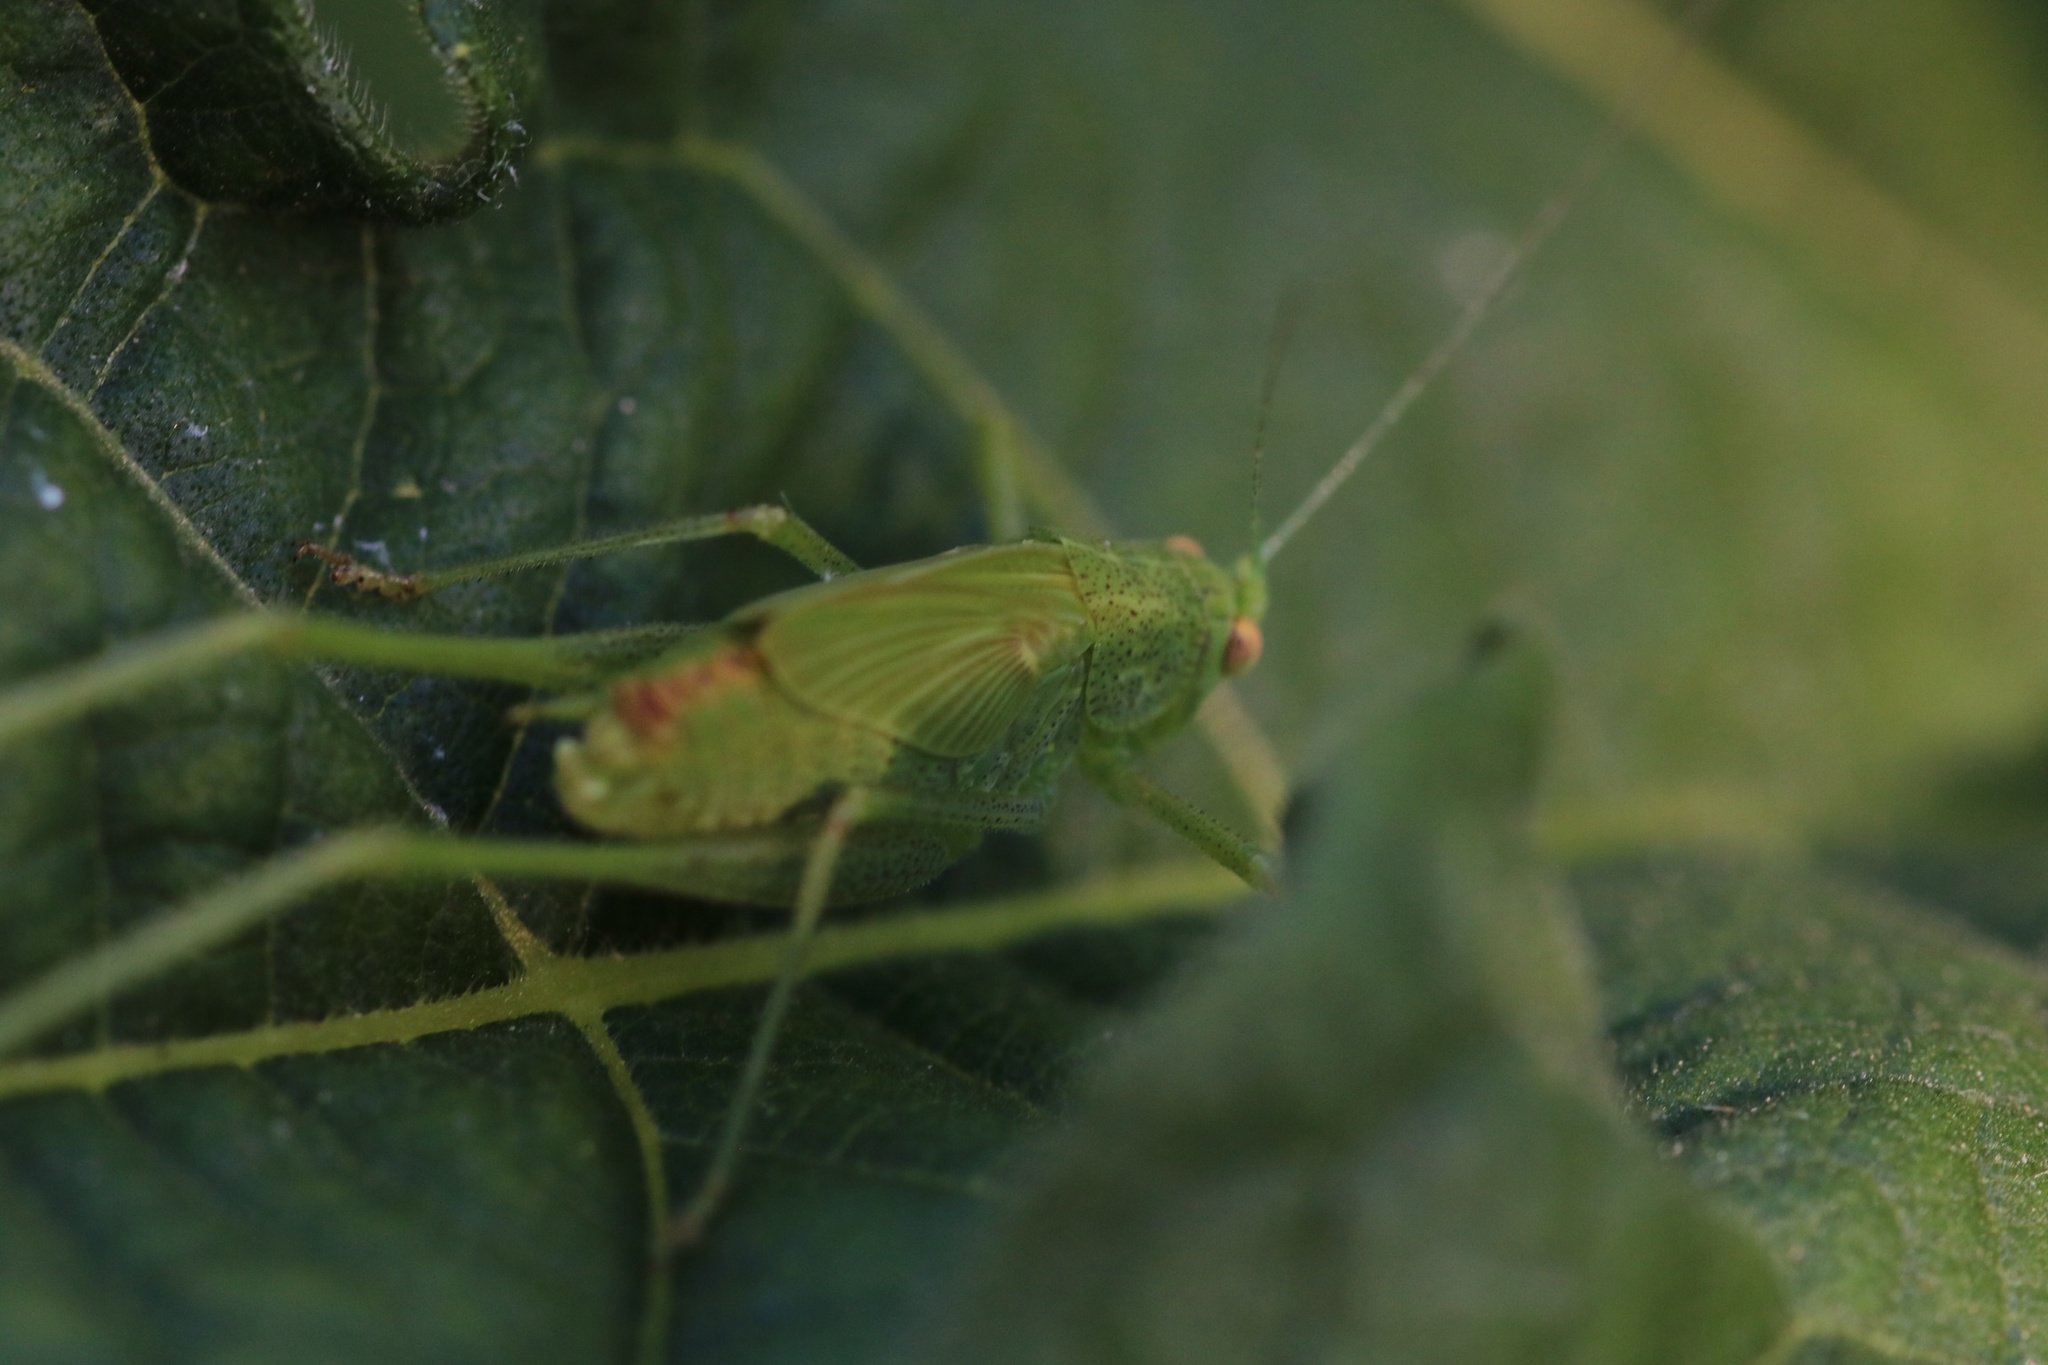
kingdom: Animalia
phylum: Arthropoda
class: Insecta
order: Orthoptera
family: Tettigoniidae
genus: Phaneroptera
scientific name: Phaneroptera nana
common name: Southern sickle bush-cricket
